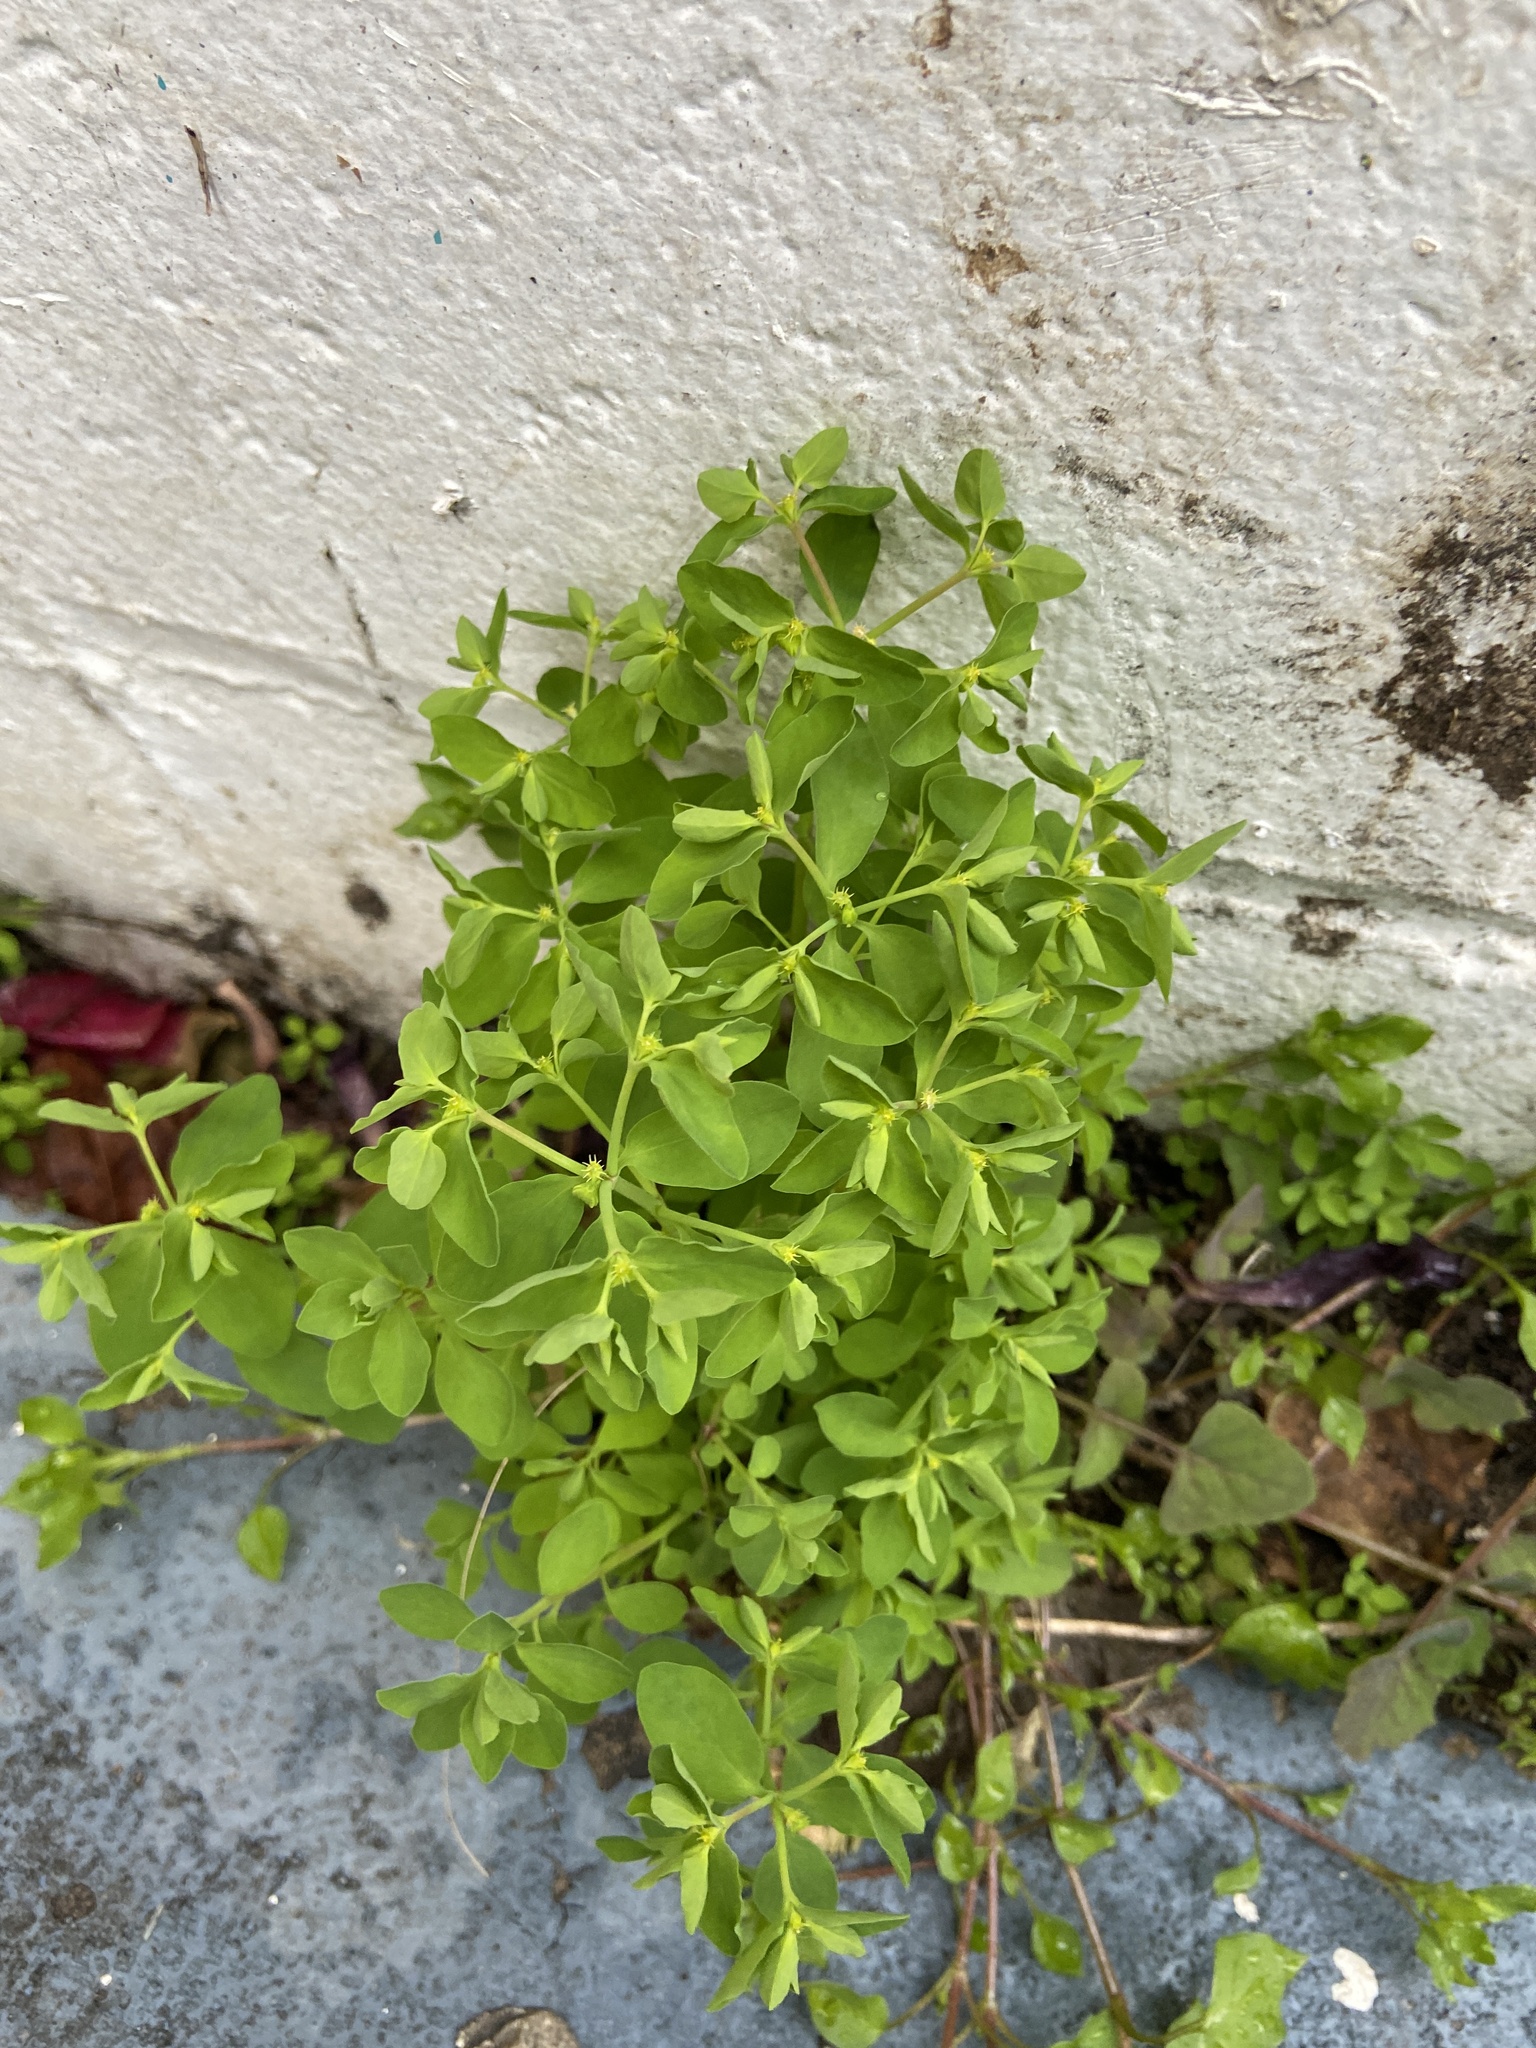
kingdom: Plantae
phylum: Tracheophyta
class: Magnoliopsida
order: Malpighiales
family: Euphorbiaceae
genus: Euphorbia
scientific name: Euphorbia peplus
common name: Petty spurge
